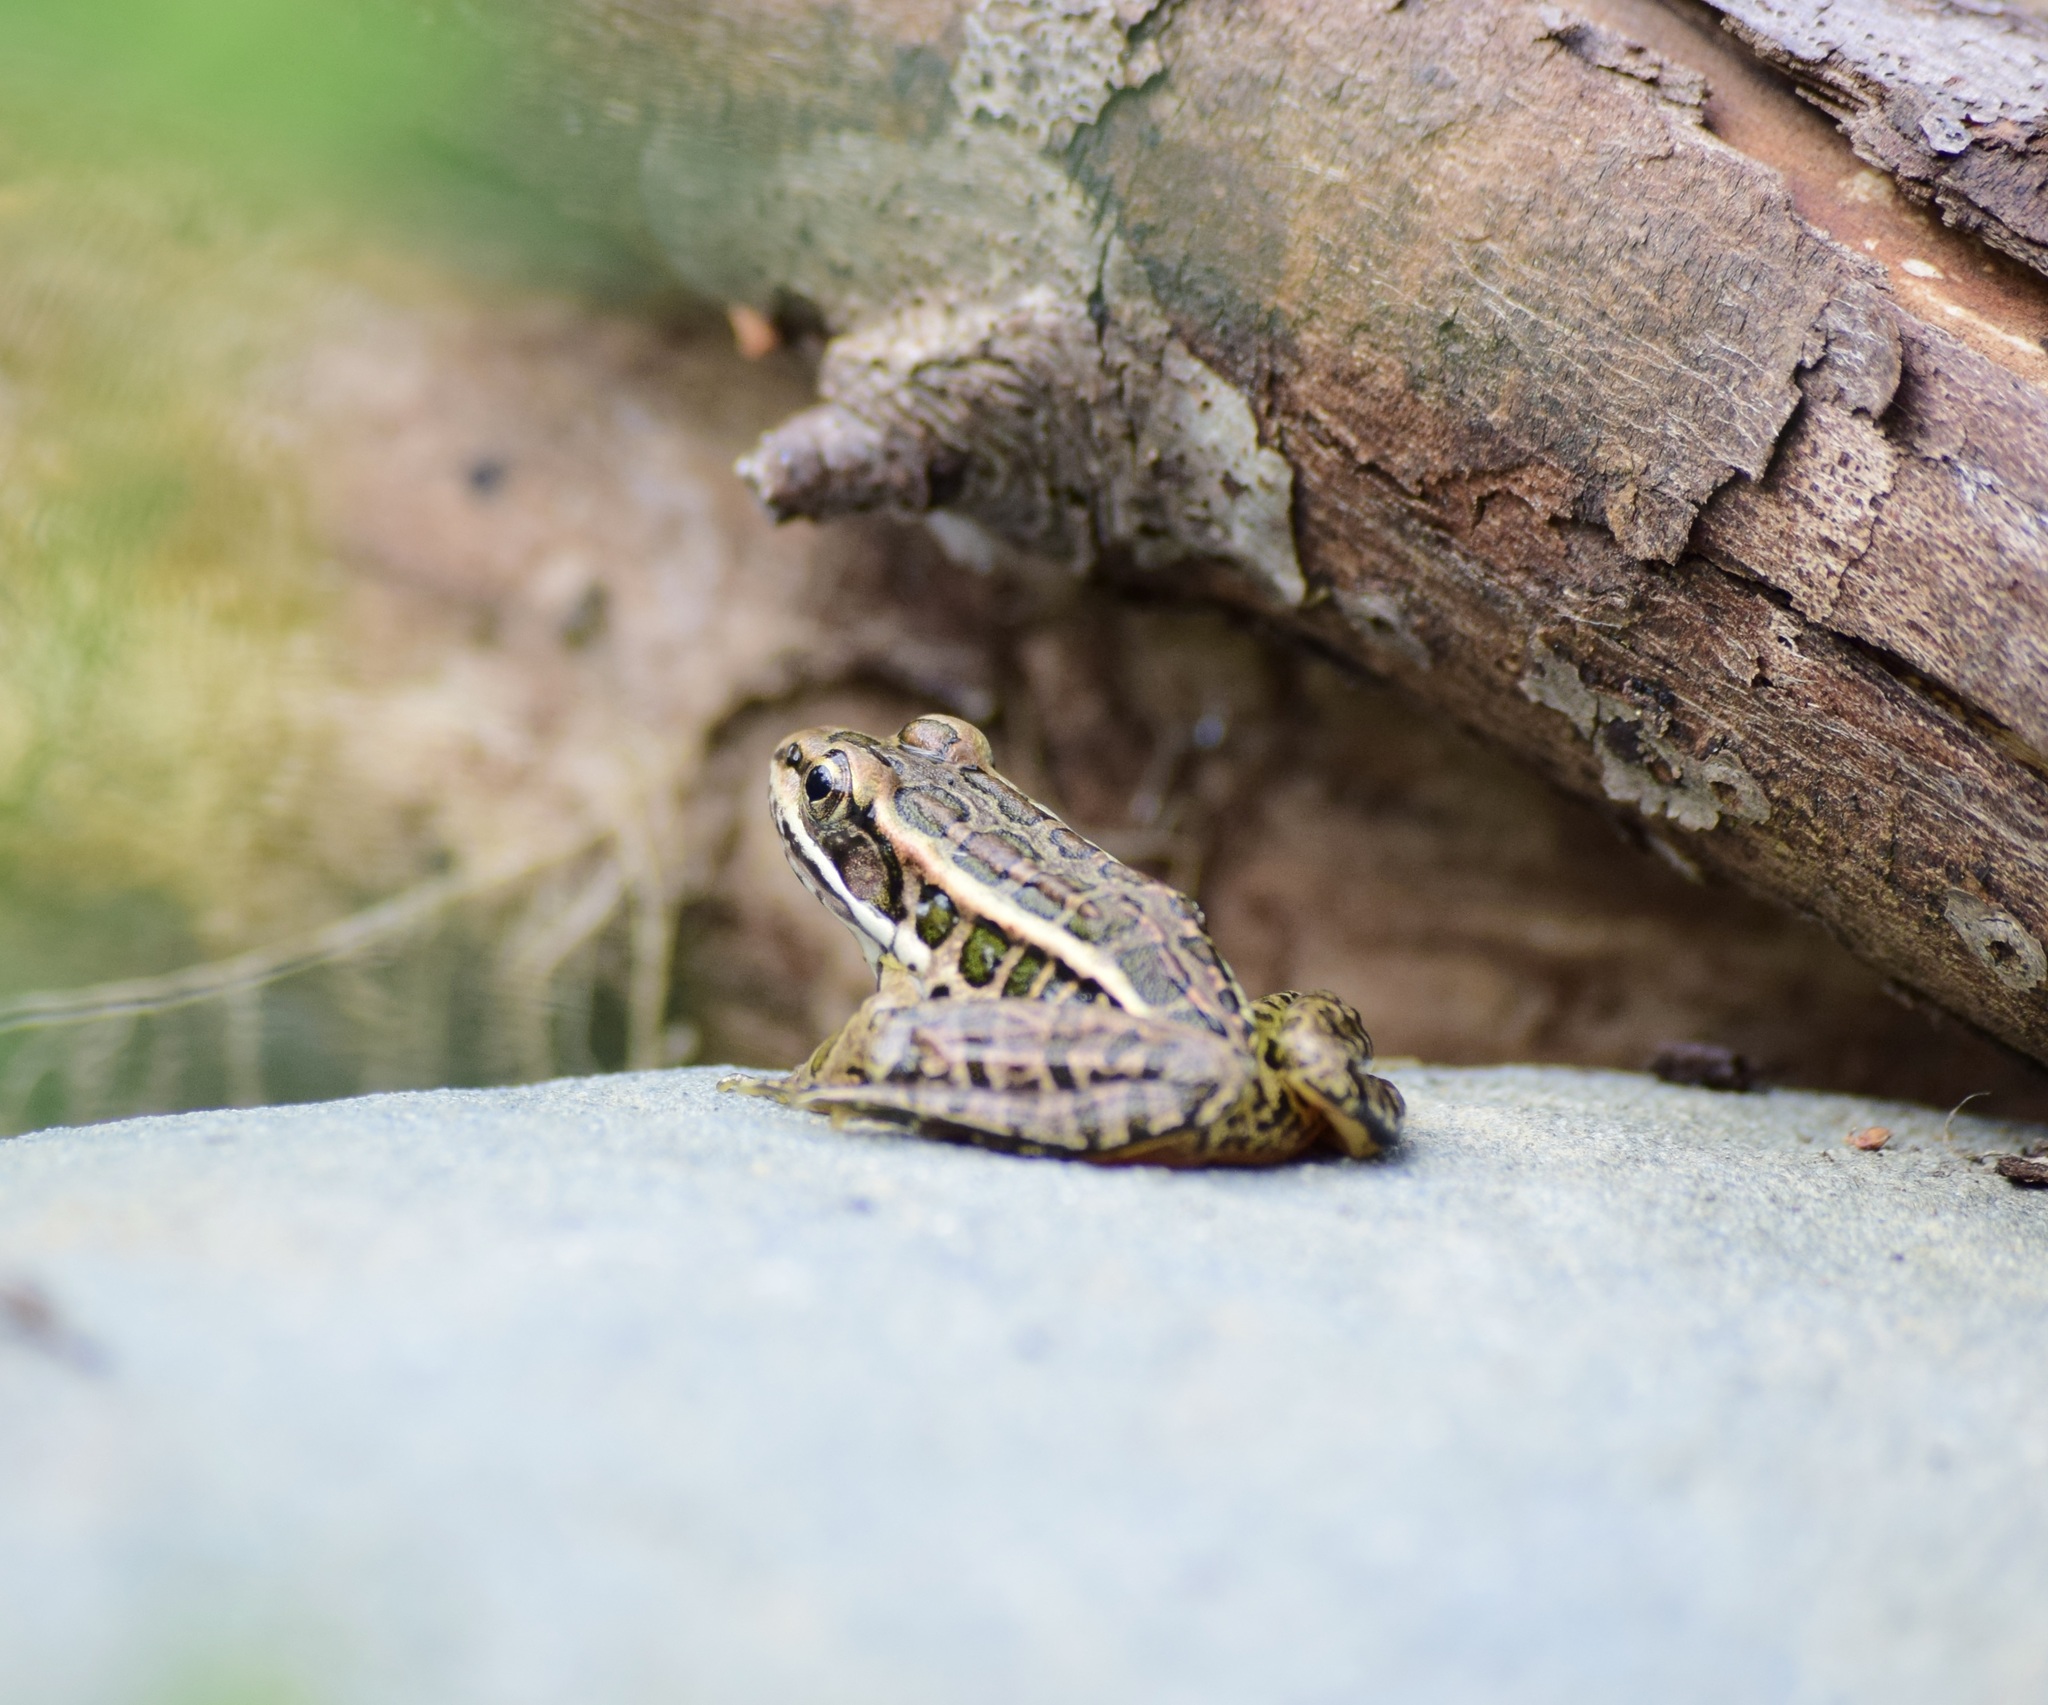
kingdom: Animalia
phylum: Chordata
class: Amphibia
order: Anura
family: Ranidae
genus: Lithobates
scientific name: Lithobates palustris
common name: Pickerel frog
